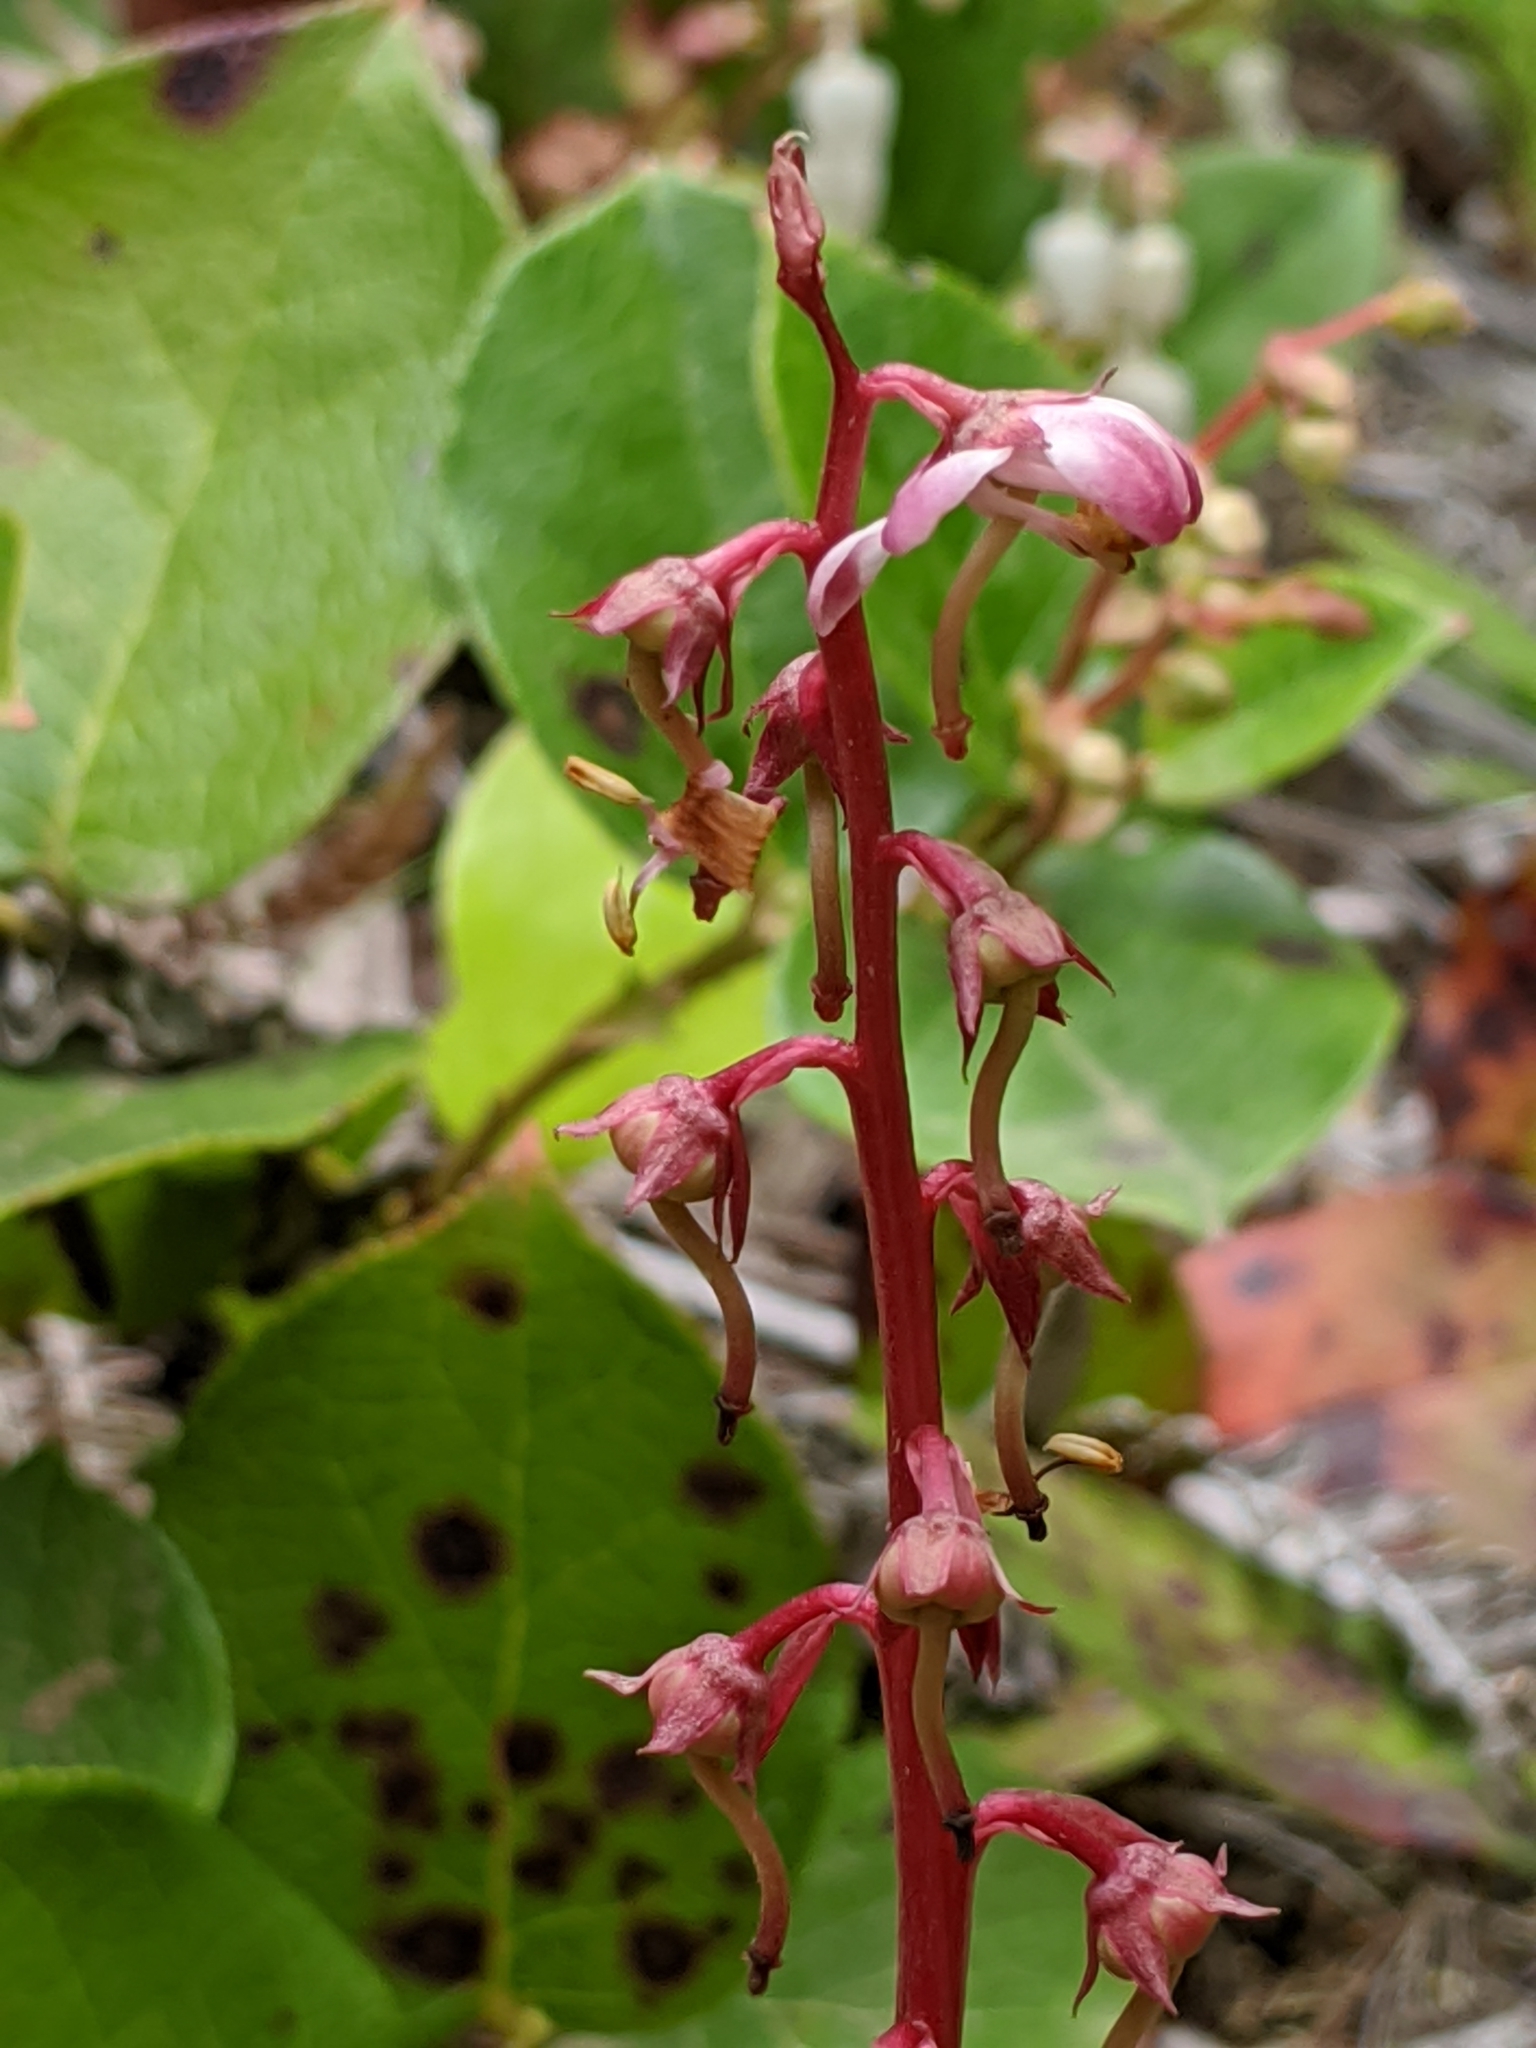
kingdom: Plantae
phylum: Tracheophyta
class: Magnoliopsida
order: Ericales
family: Ericaceae
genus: Pyrola
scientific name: Pyrola asarifolia
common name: Bog wintergreen
